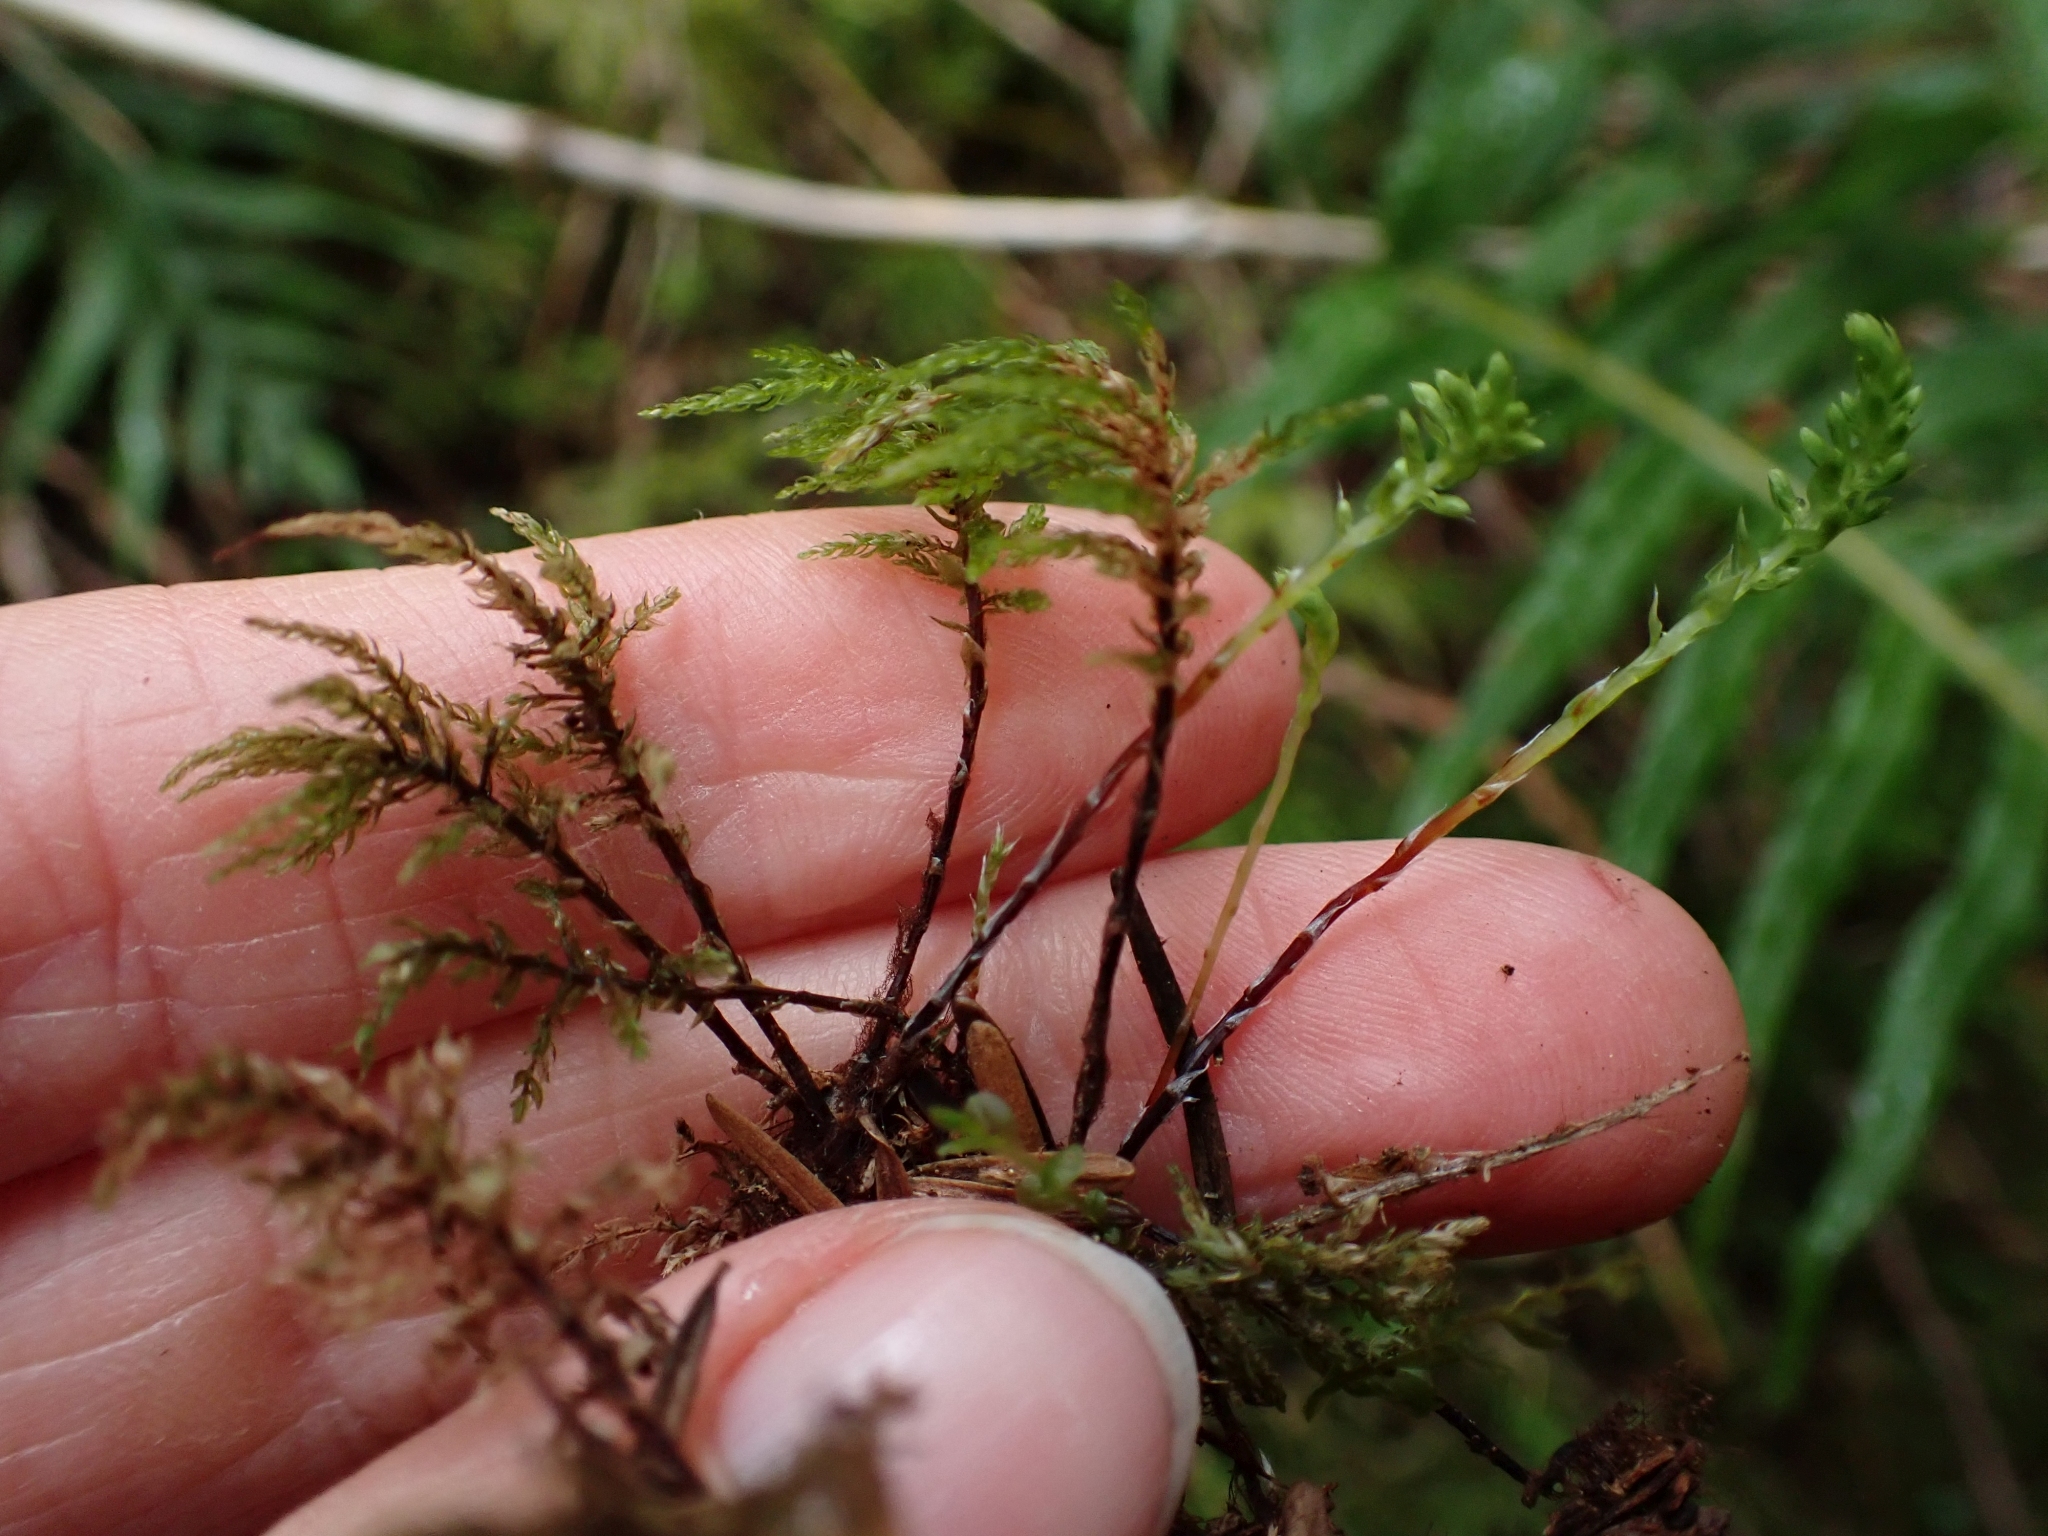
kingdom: Plantae
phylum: Bryophyta
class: Bryopsida
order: Bryales
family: Mniaceae
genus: Leucolepis
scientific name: Leucolepis acanthoneura
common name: Leucolepis umbrella moss
